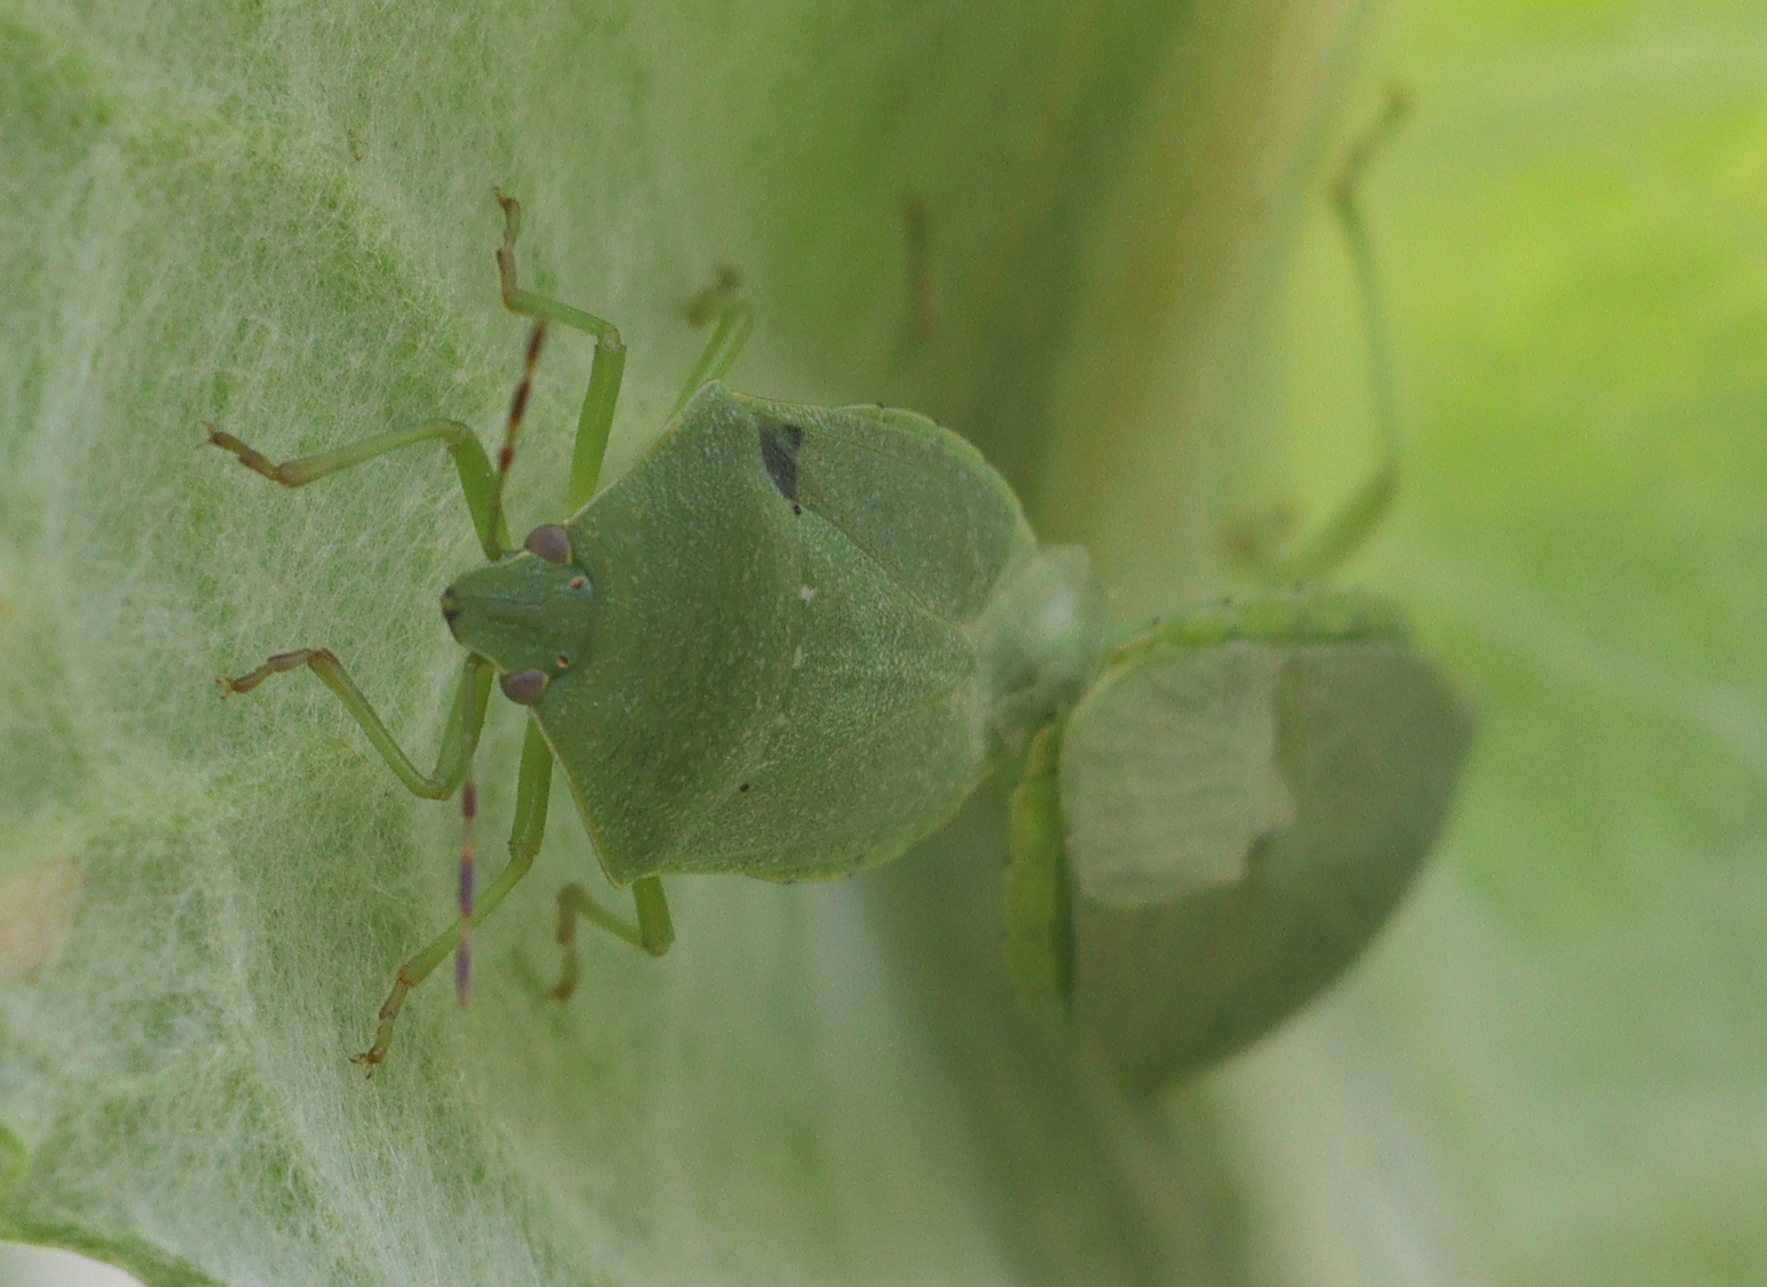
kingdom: Animalia
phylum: Arthropoda
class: Insecta
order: Hemiptera
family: Pentatomidae
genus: Nezara
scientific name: Nezara viridula
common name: Southern green stink bug
